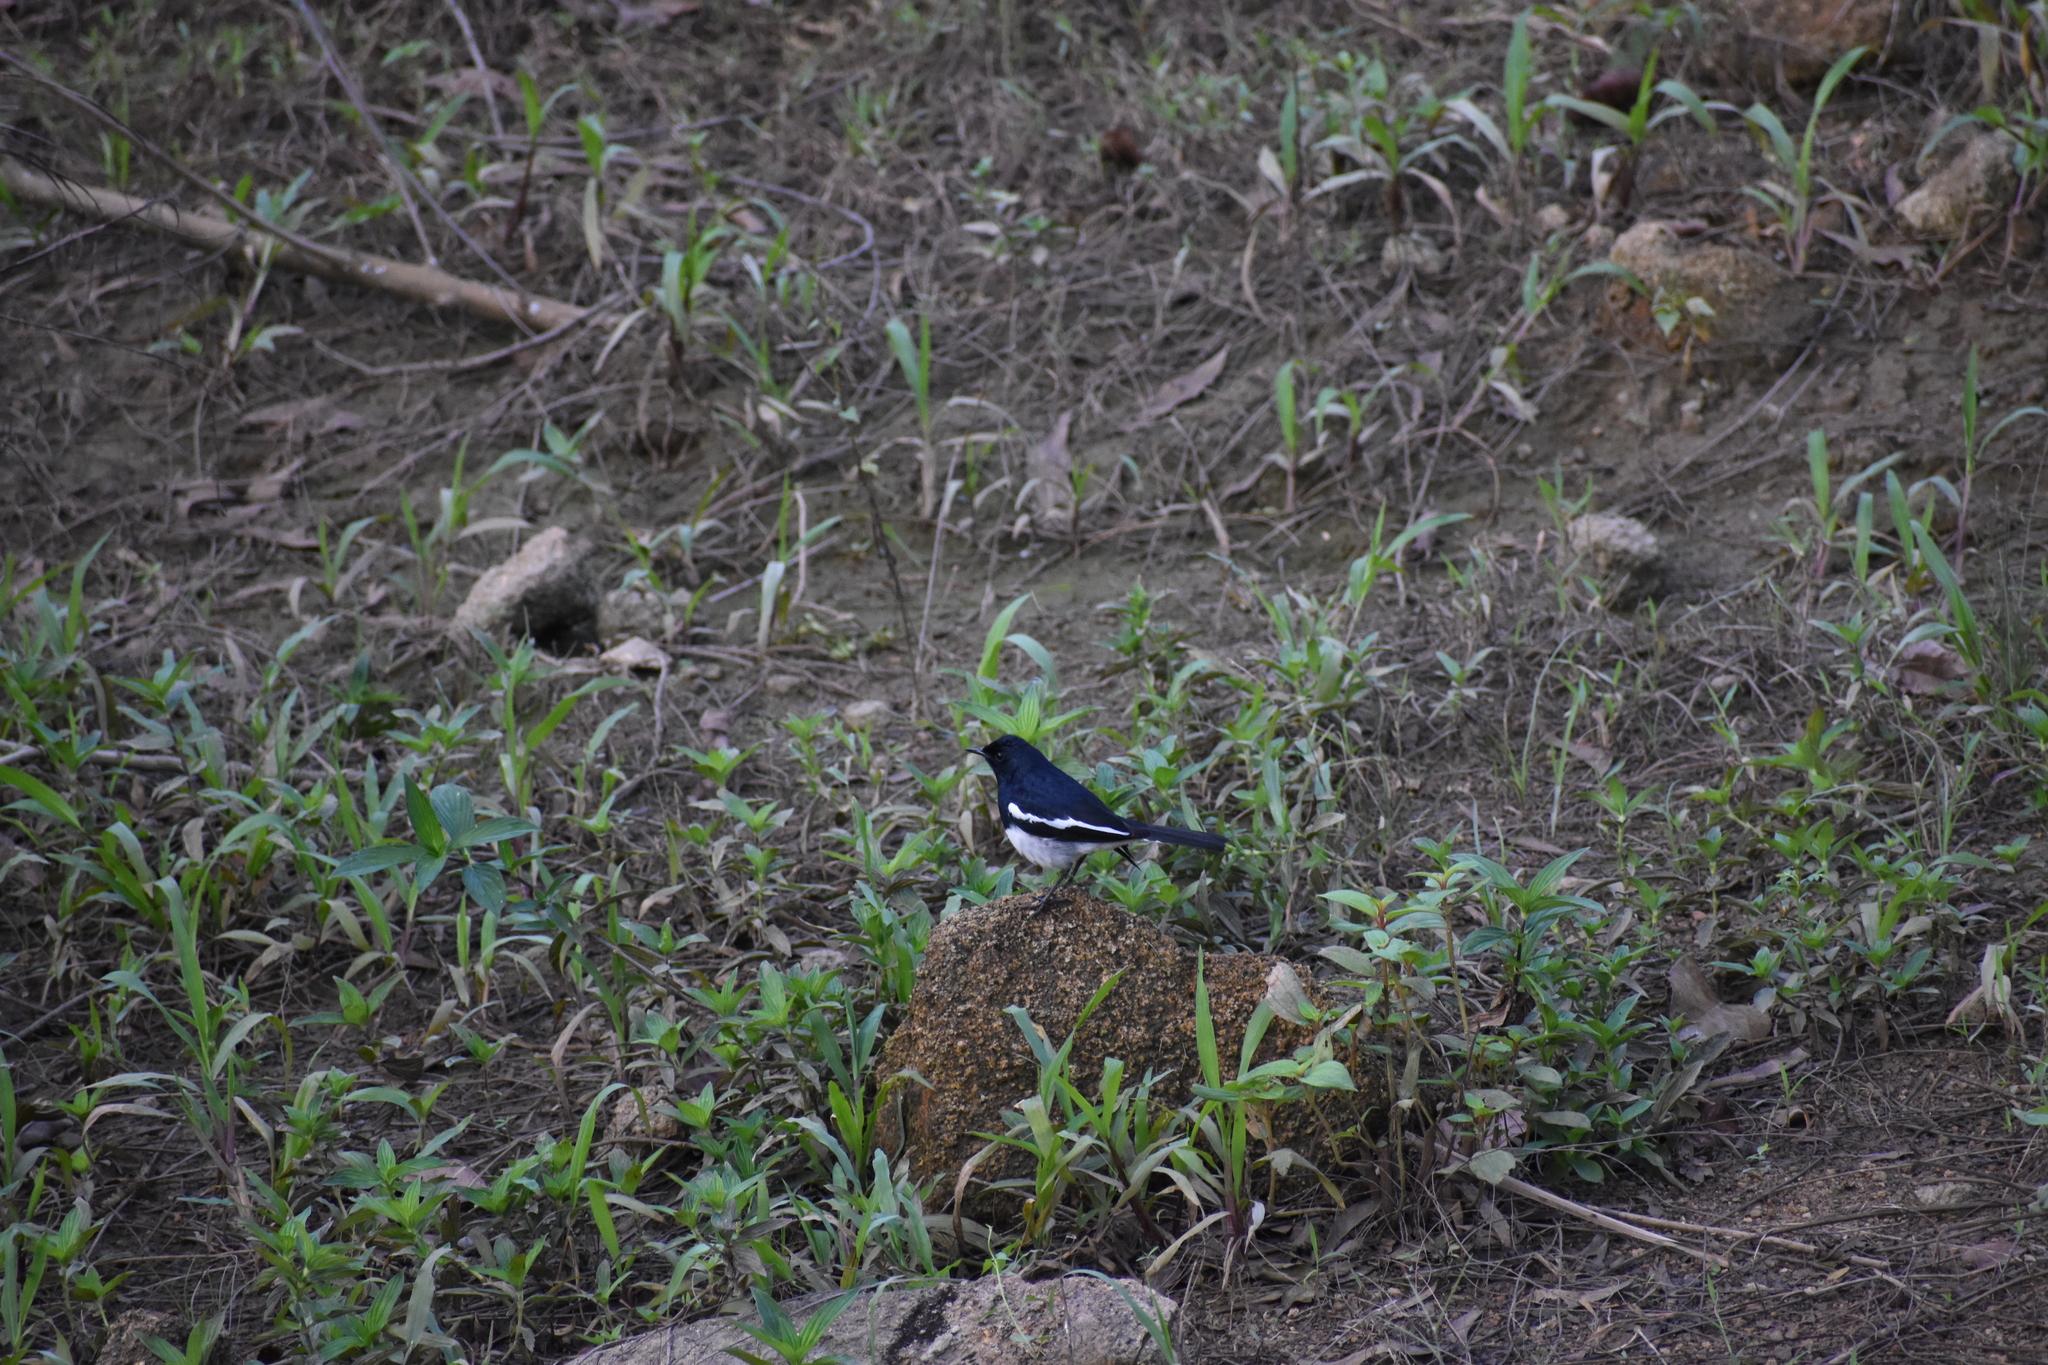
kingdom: Animalia
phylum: Chordata
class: Aves
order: Passeriformes
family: Muscicapidae
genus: Copsychus
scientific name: Copsychus saularis
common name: Oriental magpie-robin
